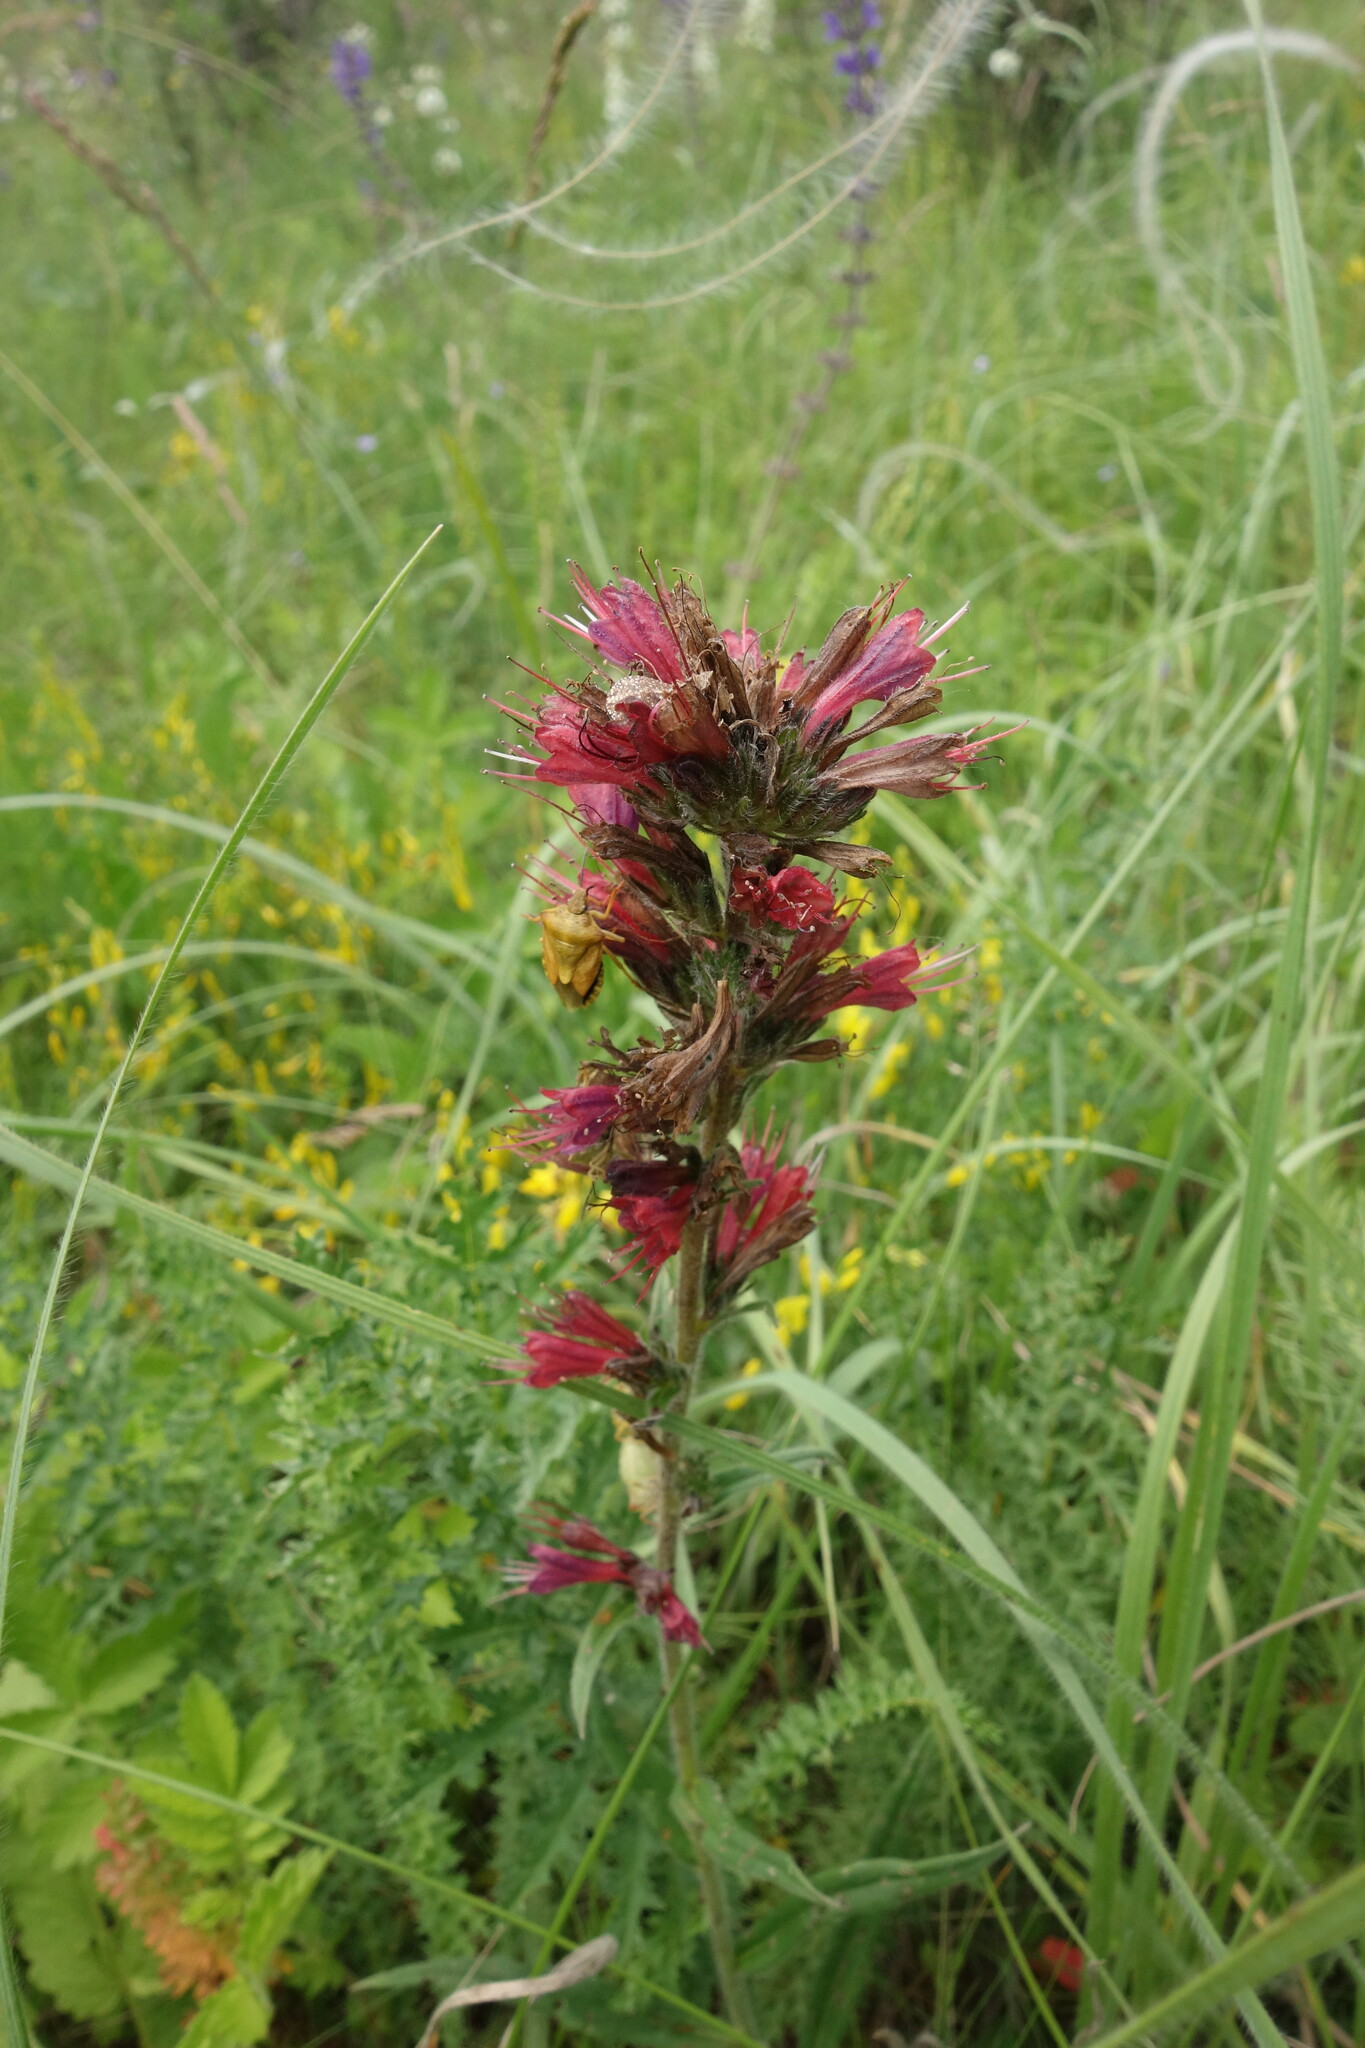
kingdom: Plantae
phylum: Tracheophyta
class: Magnoliopsida
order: Boraginales
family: Boraginaceae
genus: Pontechium
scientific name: Pontechium maculatum
